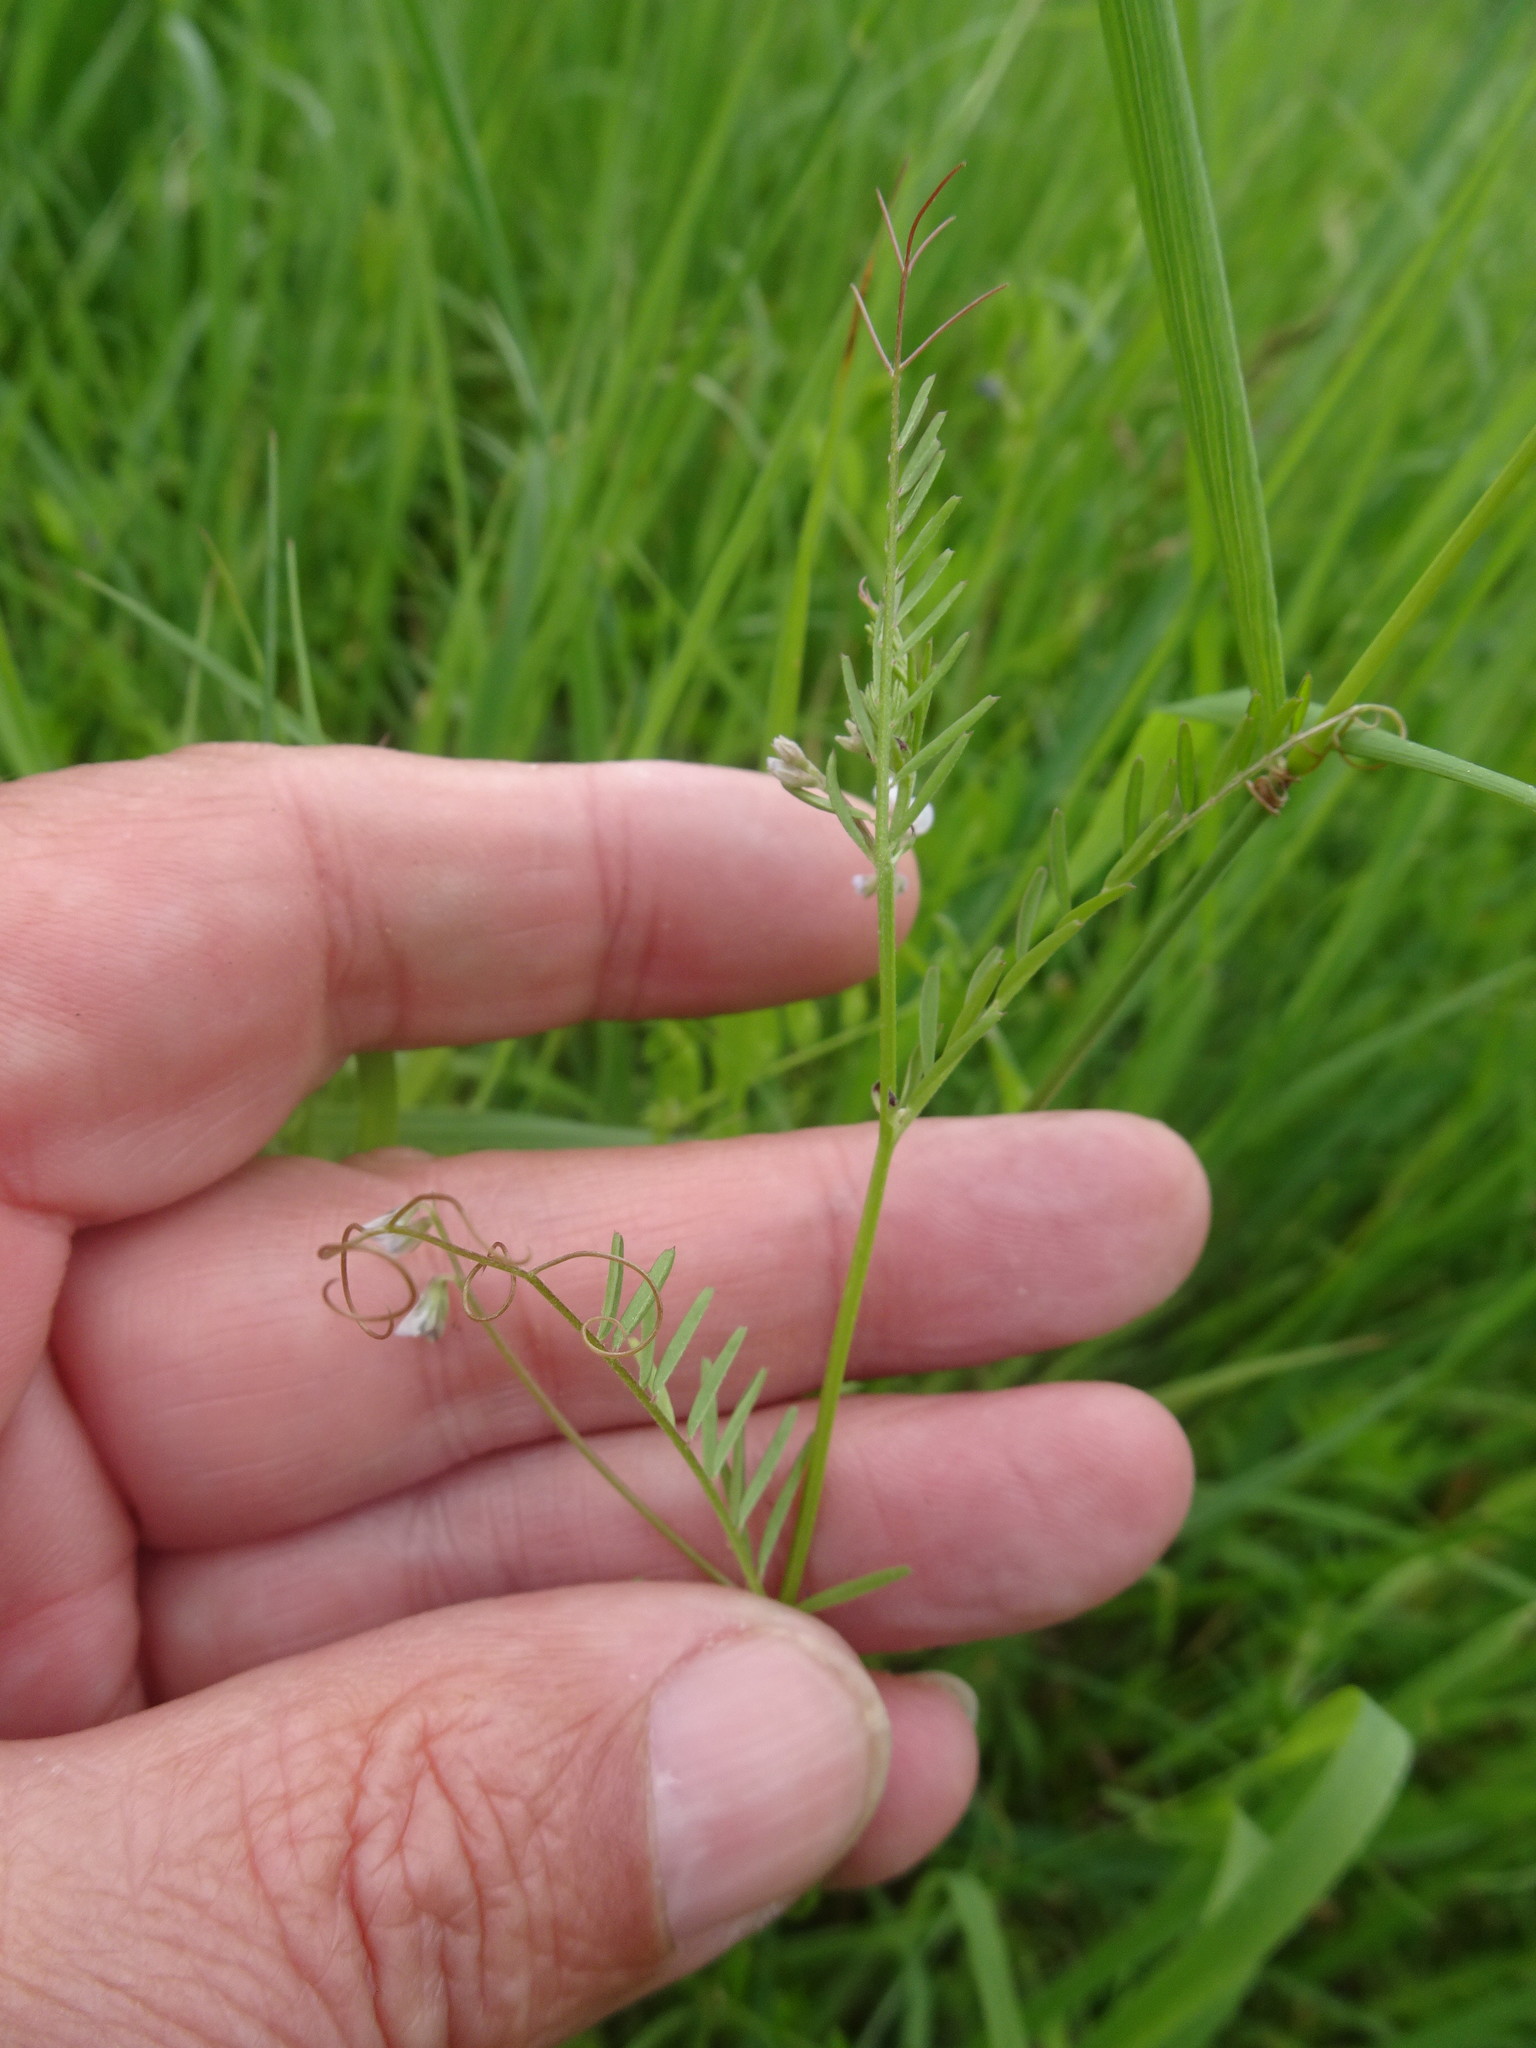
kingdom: Plantae
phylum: Tracheophyta
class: Magnoliopsida
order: Fabales
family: Fabaceae
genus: Vicia
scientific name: Vicia hirsuta
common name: Tiny vetch
